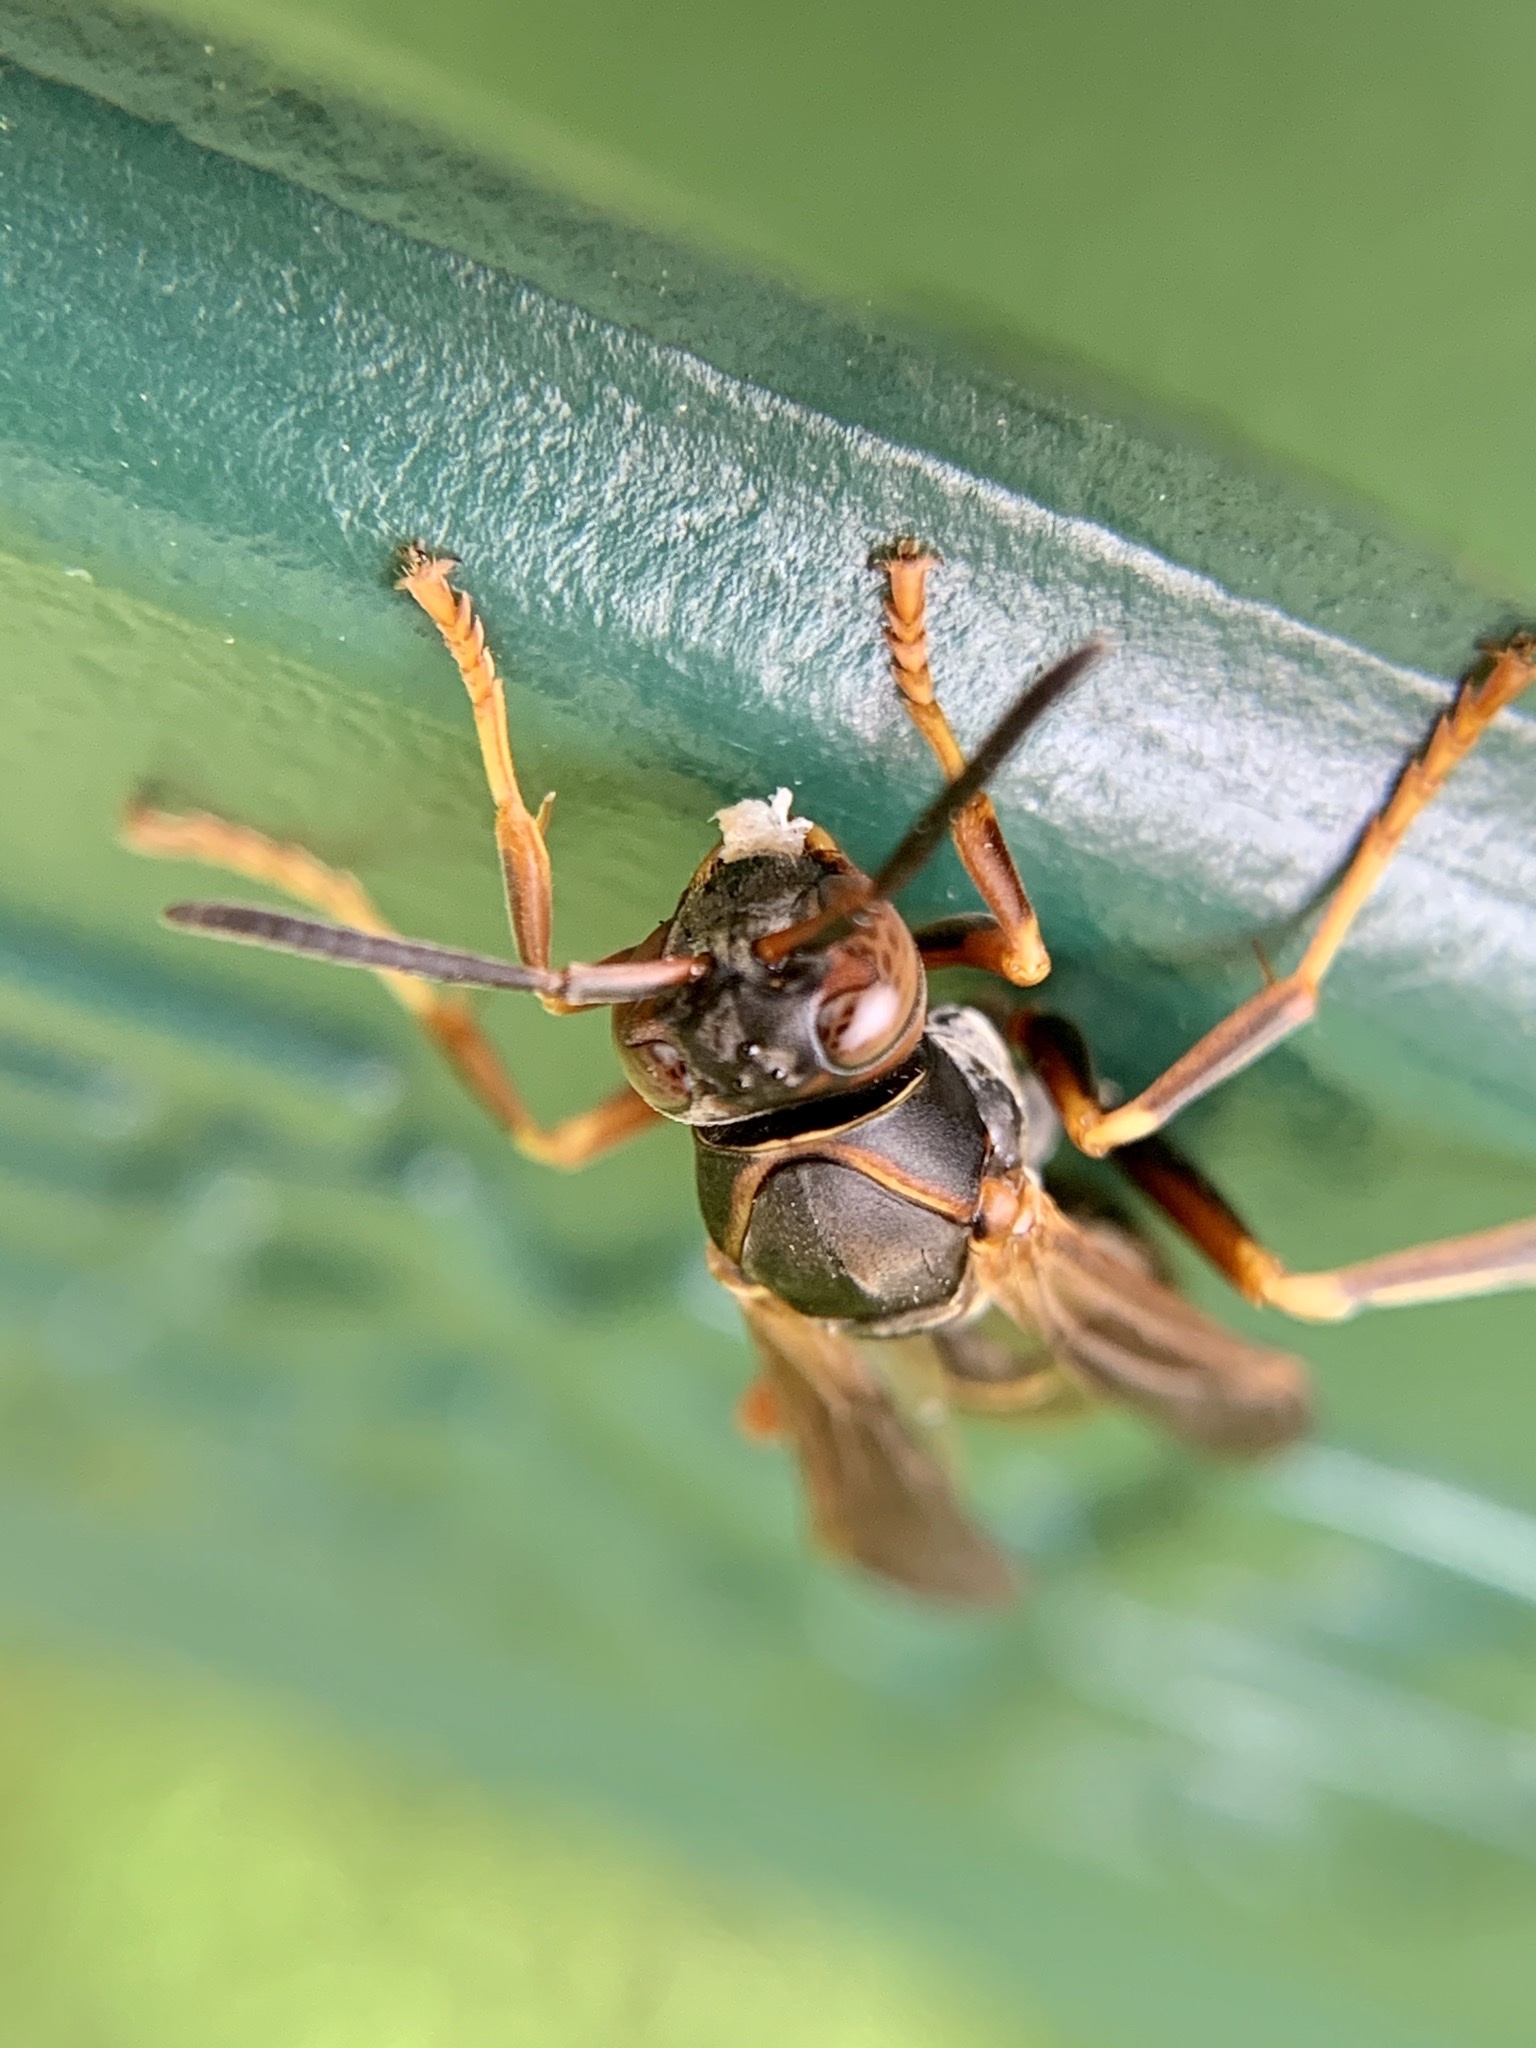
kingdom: Animalia
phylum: Arthropoda
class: Insecta
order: Hymenoptera
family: Eumenidae
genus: Polistes
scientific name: Polistes fuscatus
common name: Dark paper wasp
